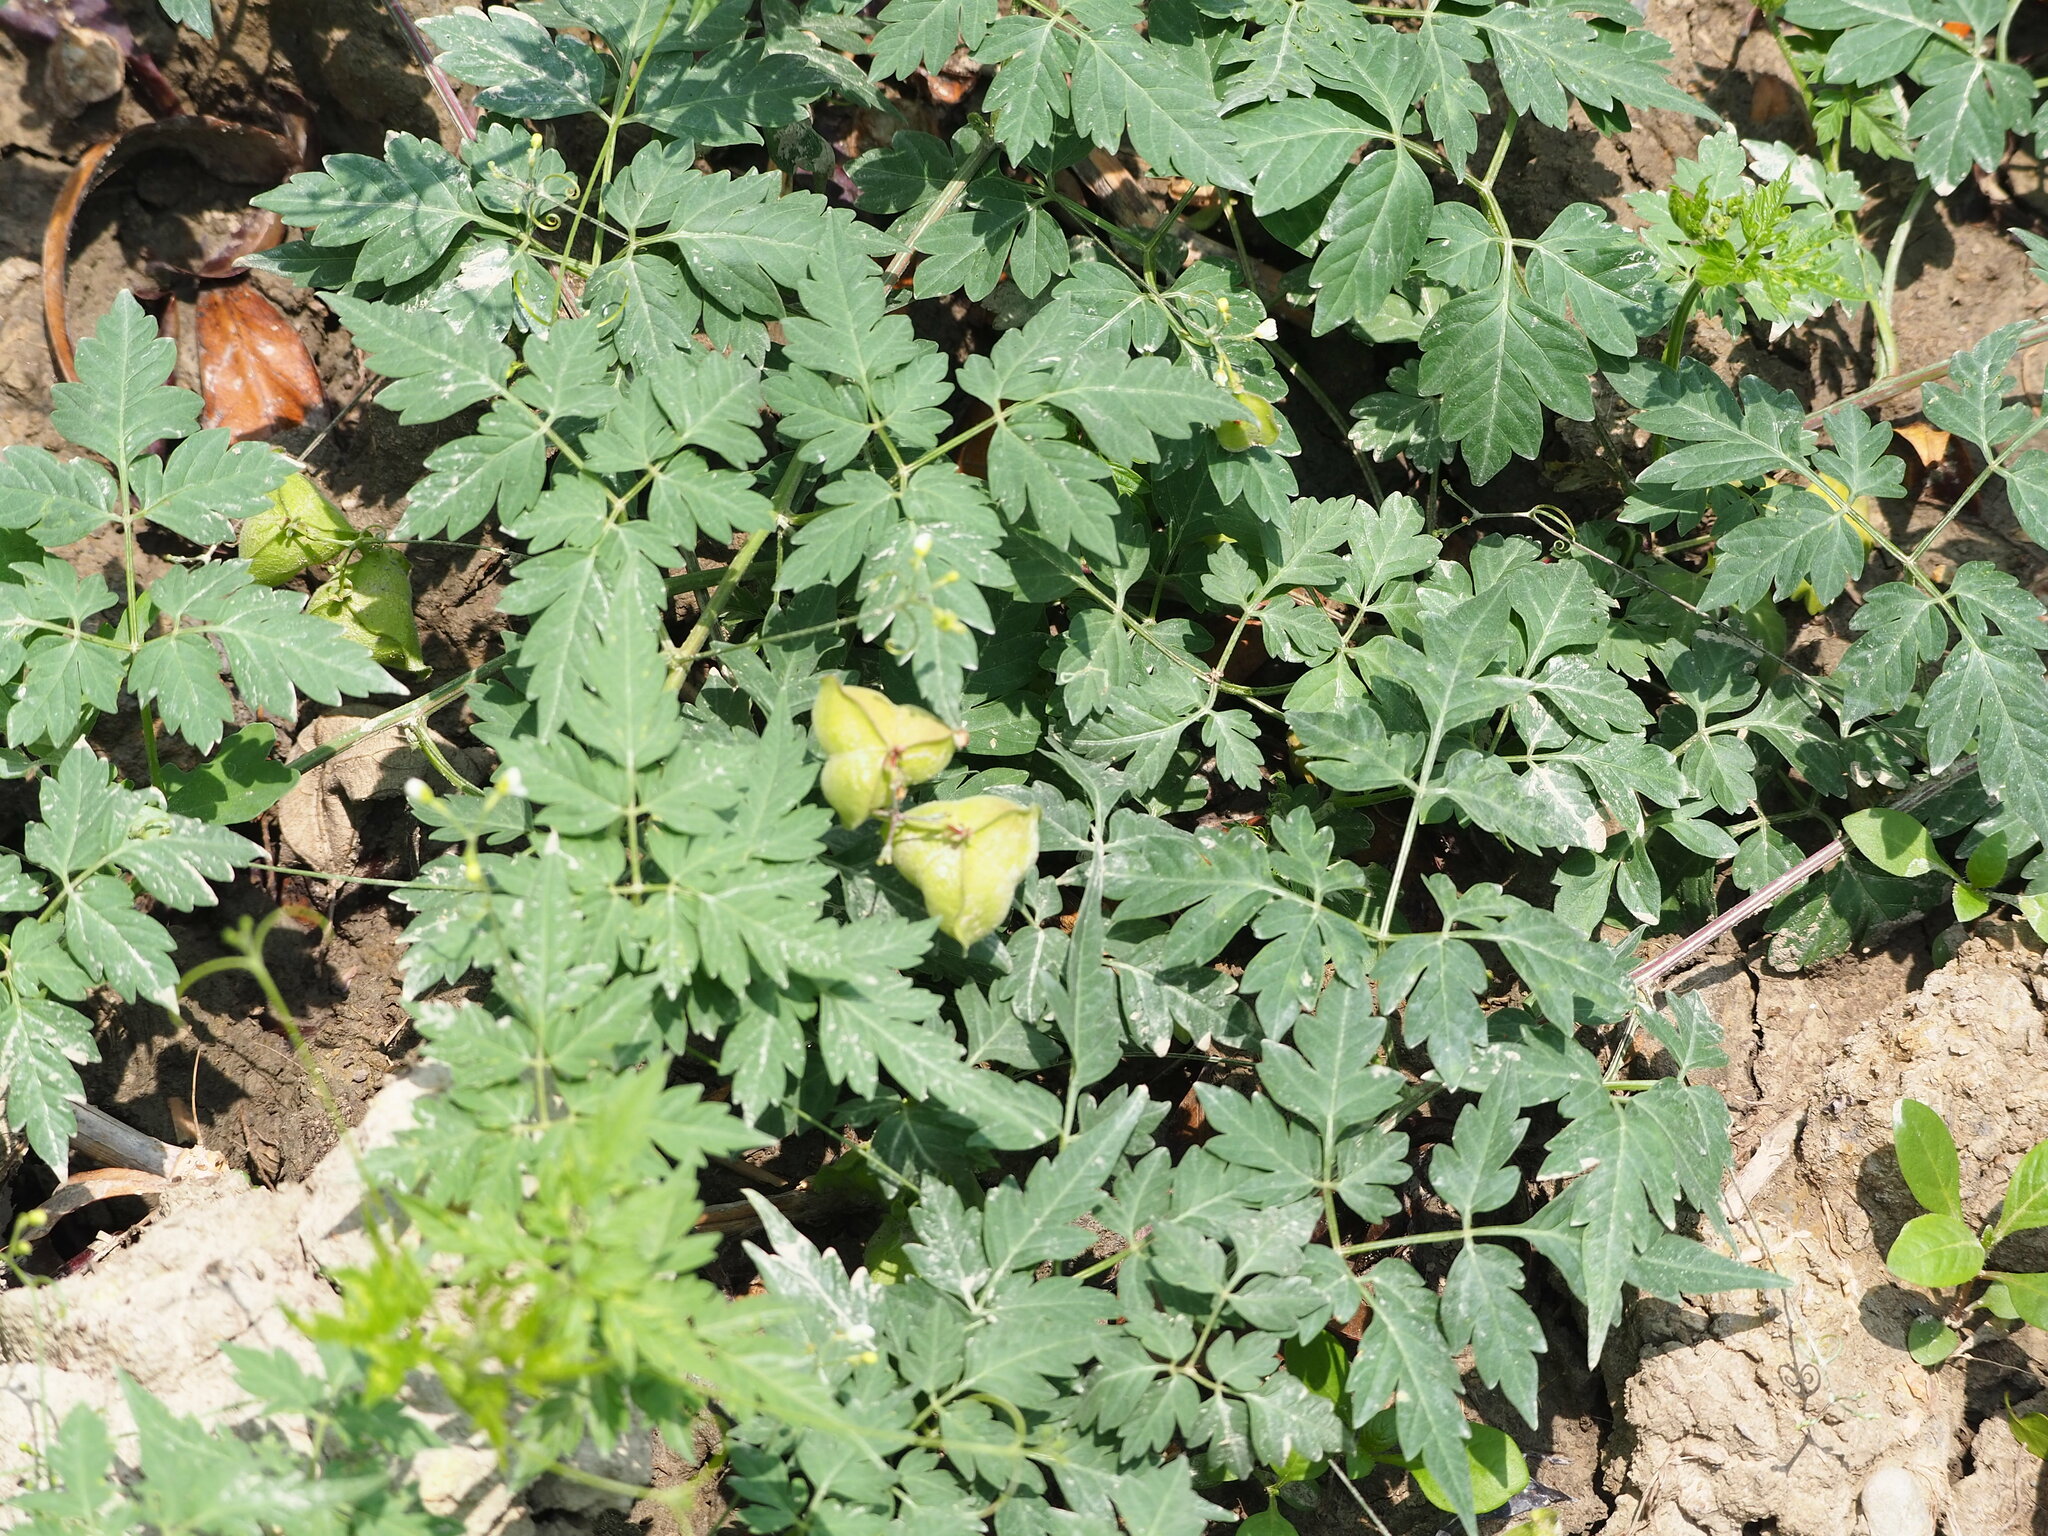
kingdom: Plantae
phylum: Tracheophyta
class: Magnoliopsida
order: Sapindales
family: Sapindaceae
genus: Cardiospermum
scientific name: Cardiospermum halicacabum
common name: Balloon vine
